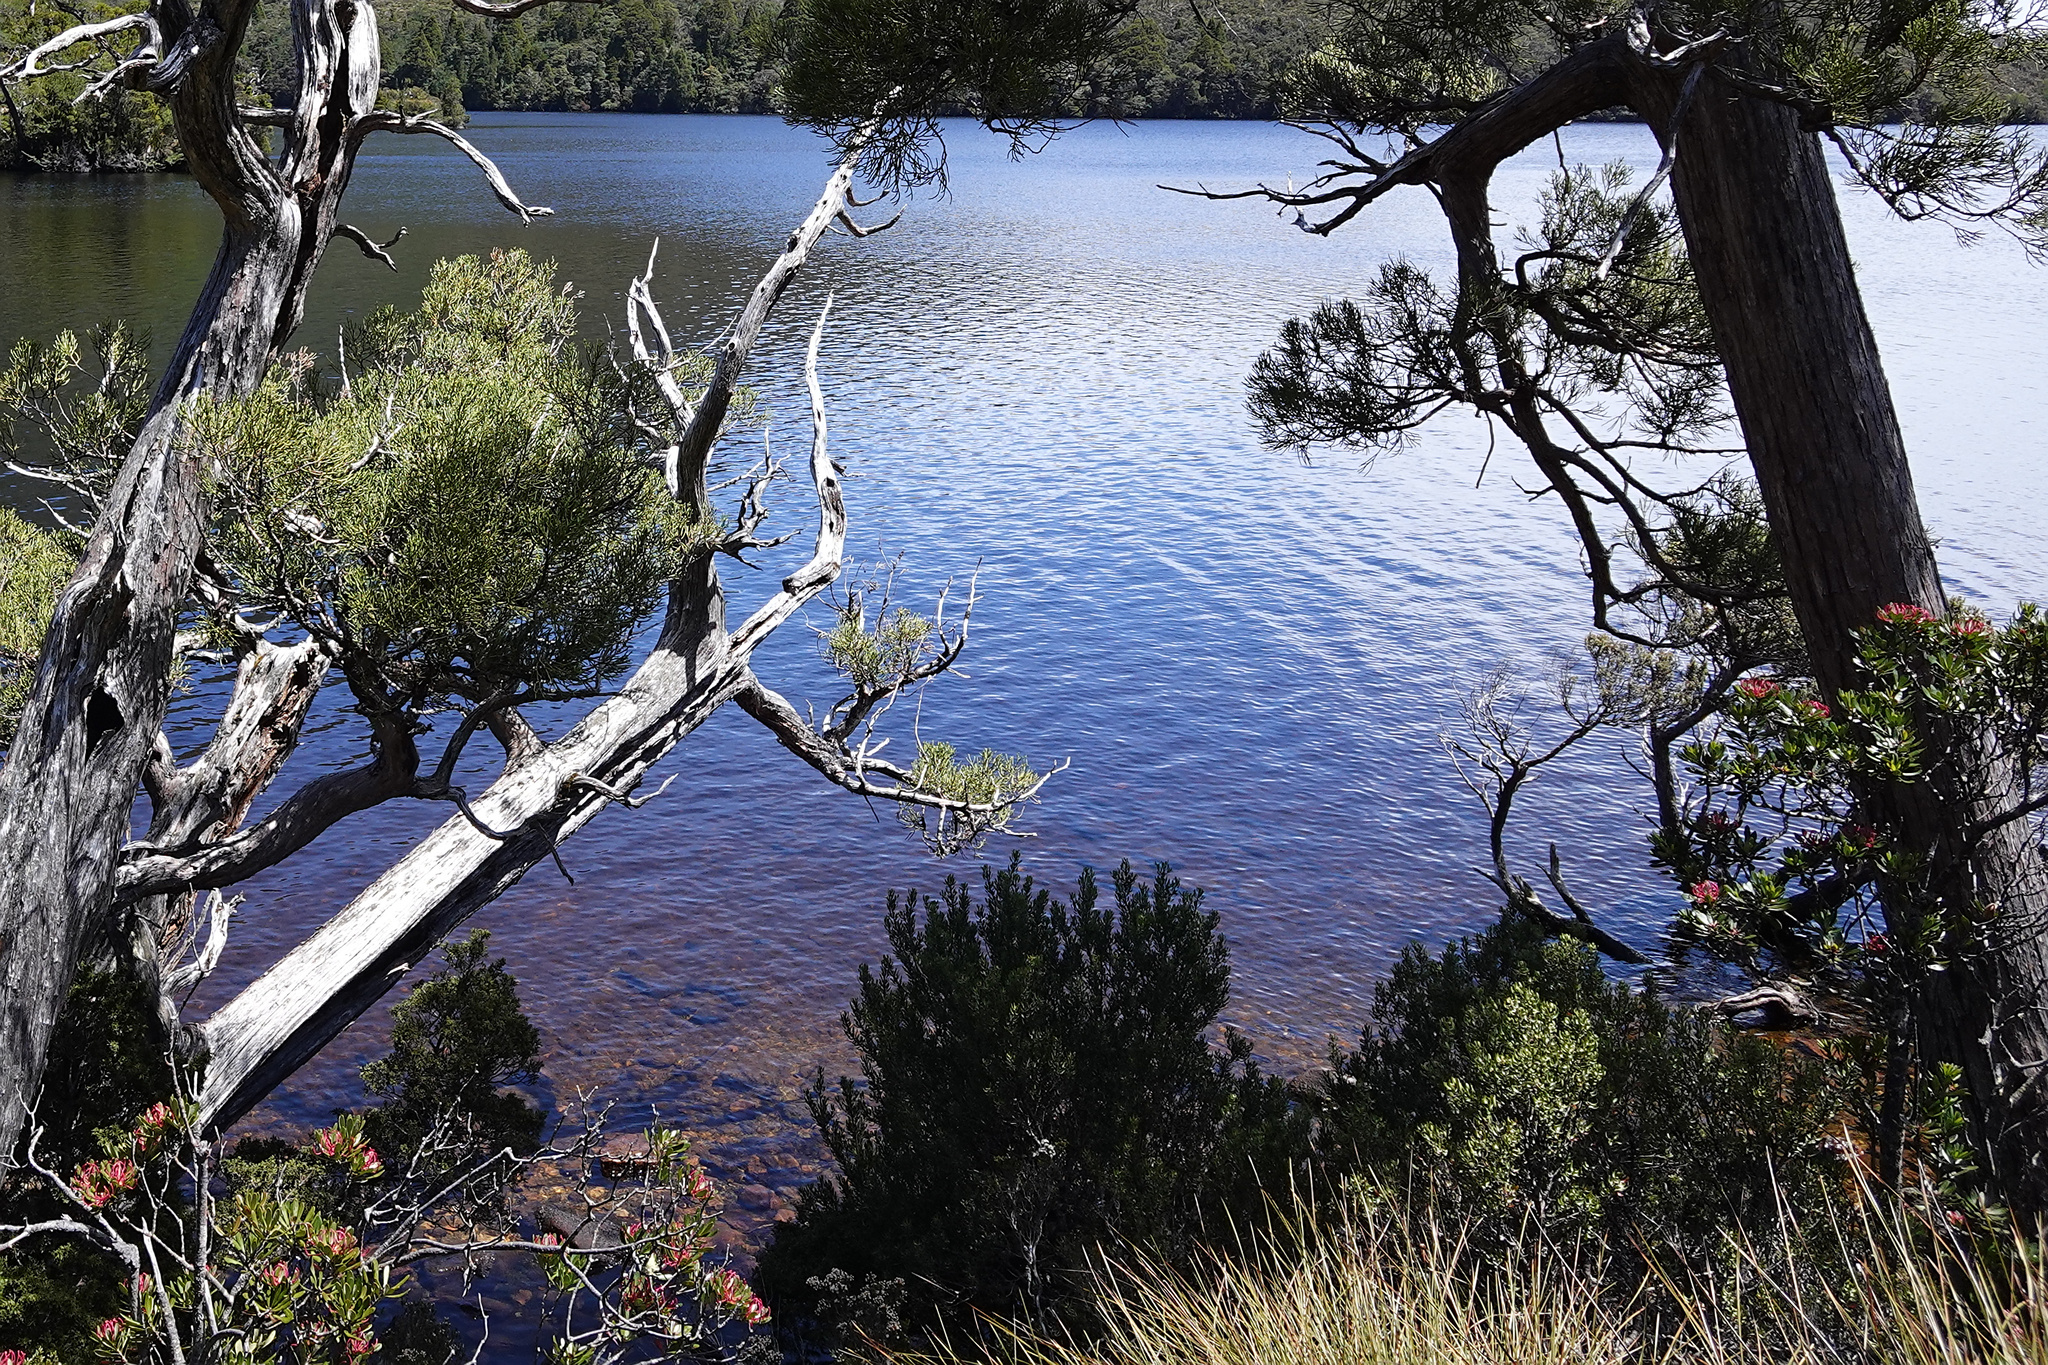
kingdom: Plantae
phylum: Tracheophyta
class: Magnoliopsida
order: Proteales
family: Proteaceae
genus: Telopea
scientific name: Telopea truncata
